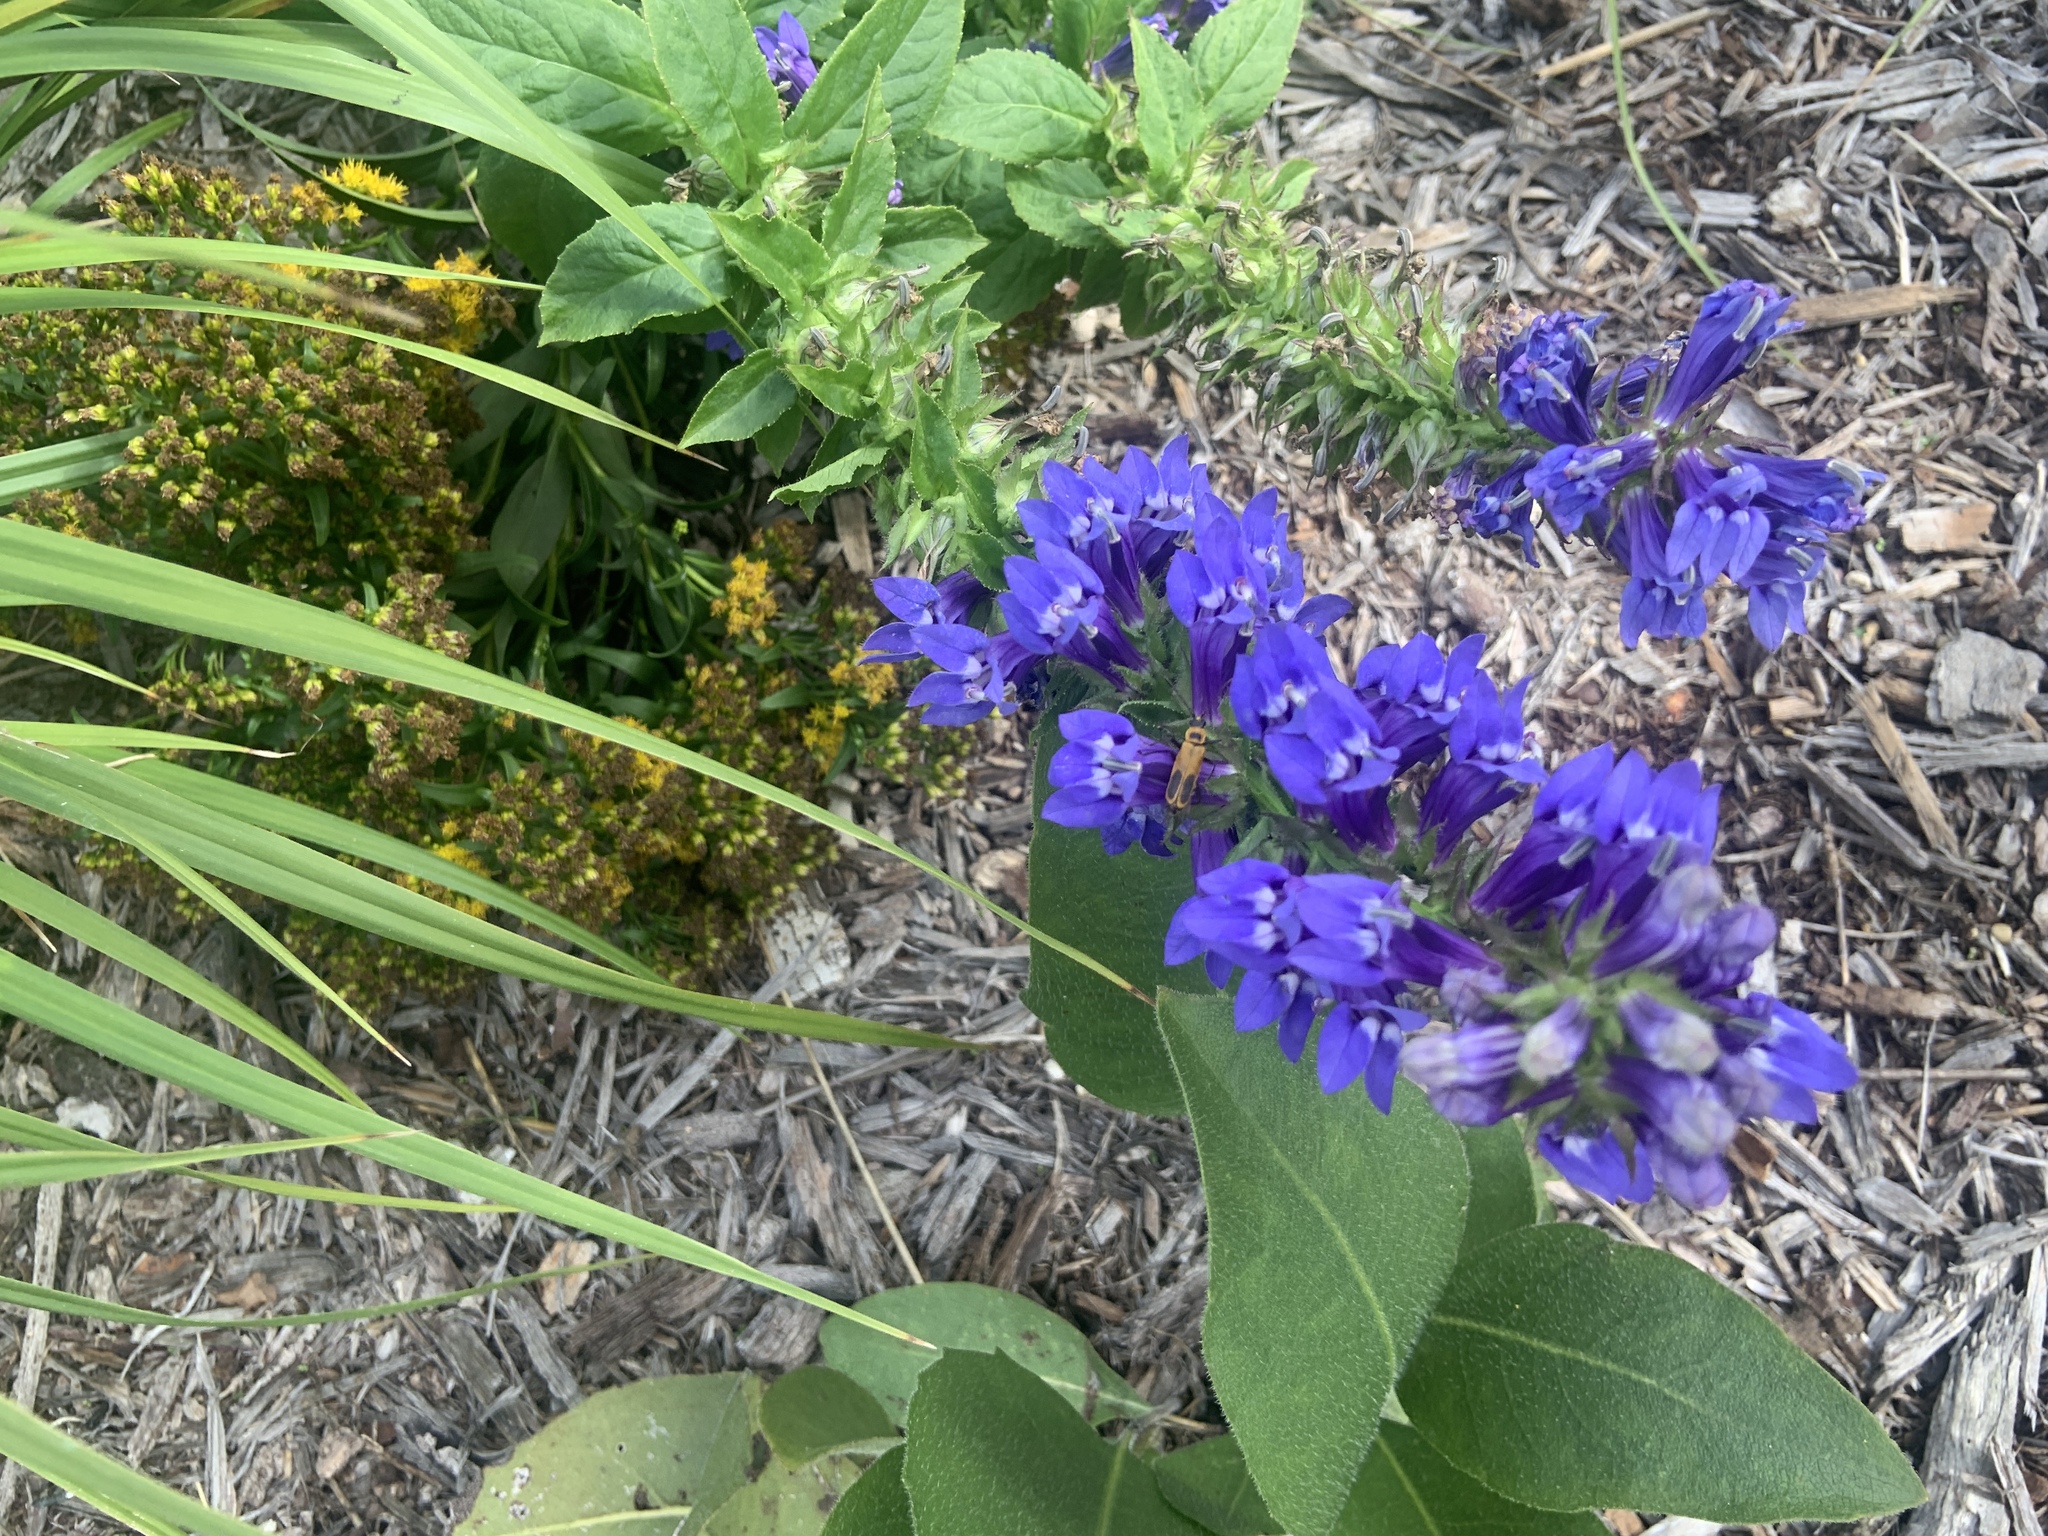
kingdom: Animalia
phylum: Arthropoda
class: Insecta
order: Coleoptera
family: Cantharidae
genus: Chauliognathus
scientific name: Chauliognathus pensylvanicus
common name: Goldenrod soldier beetle
